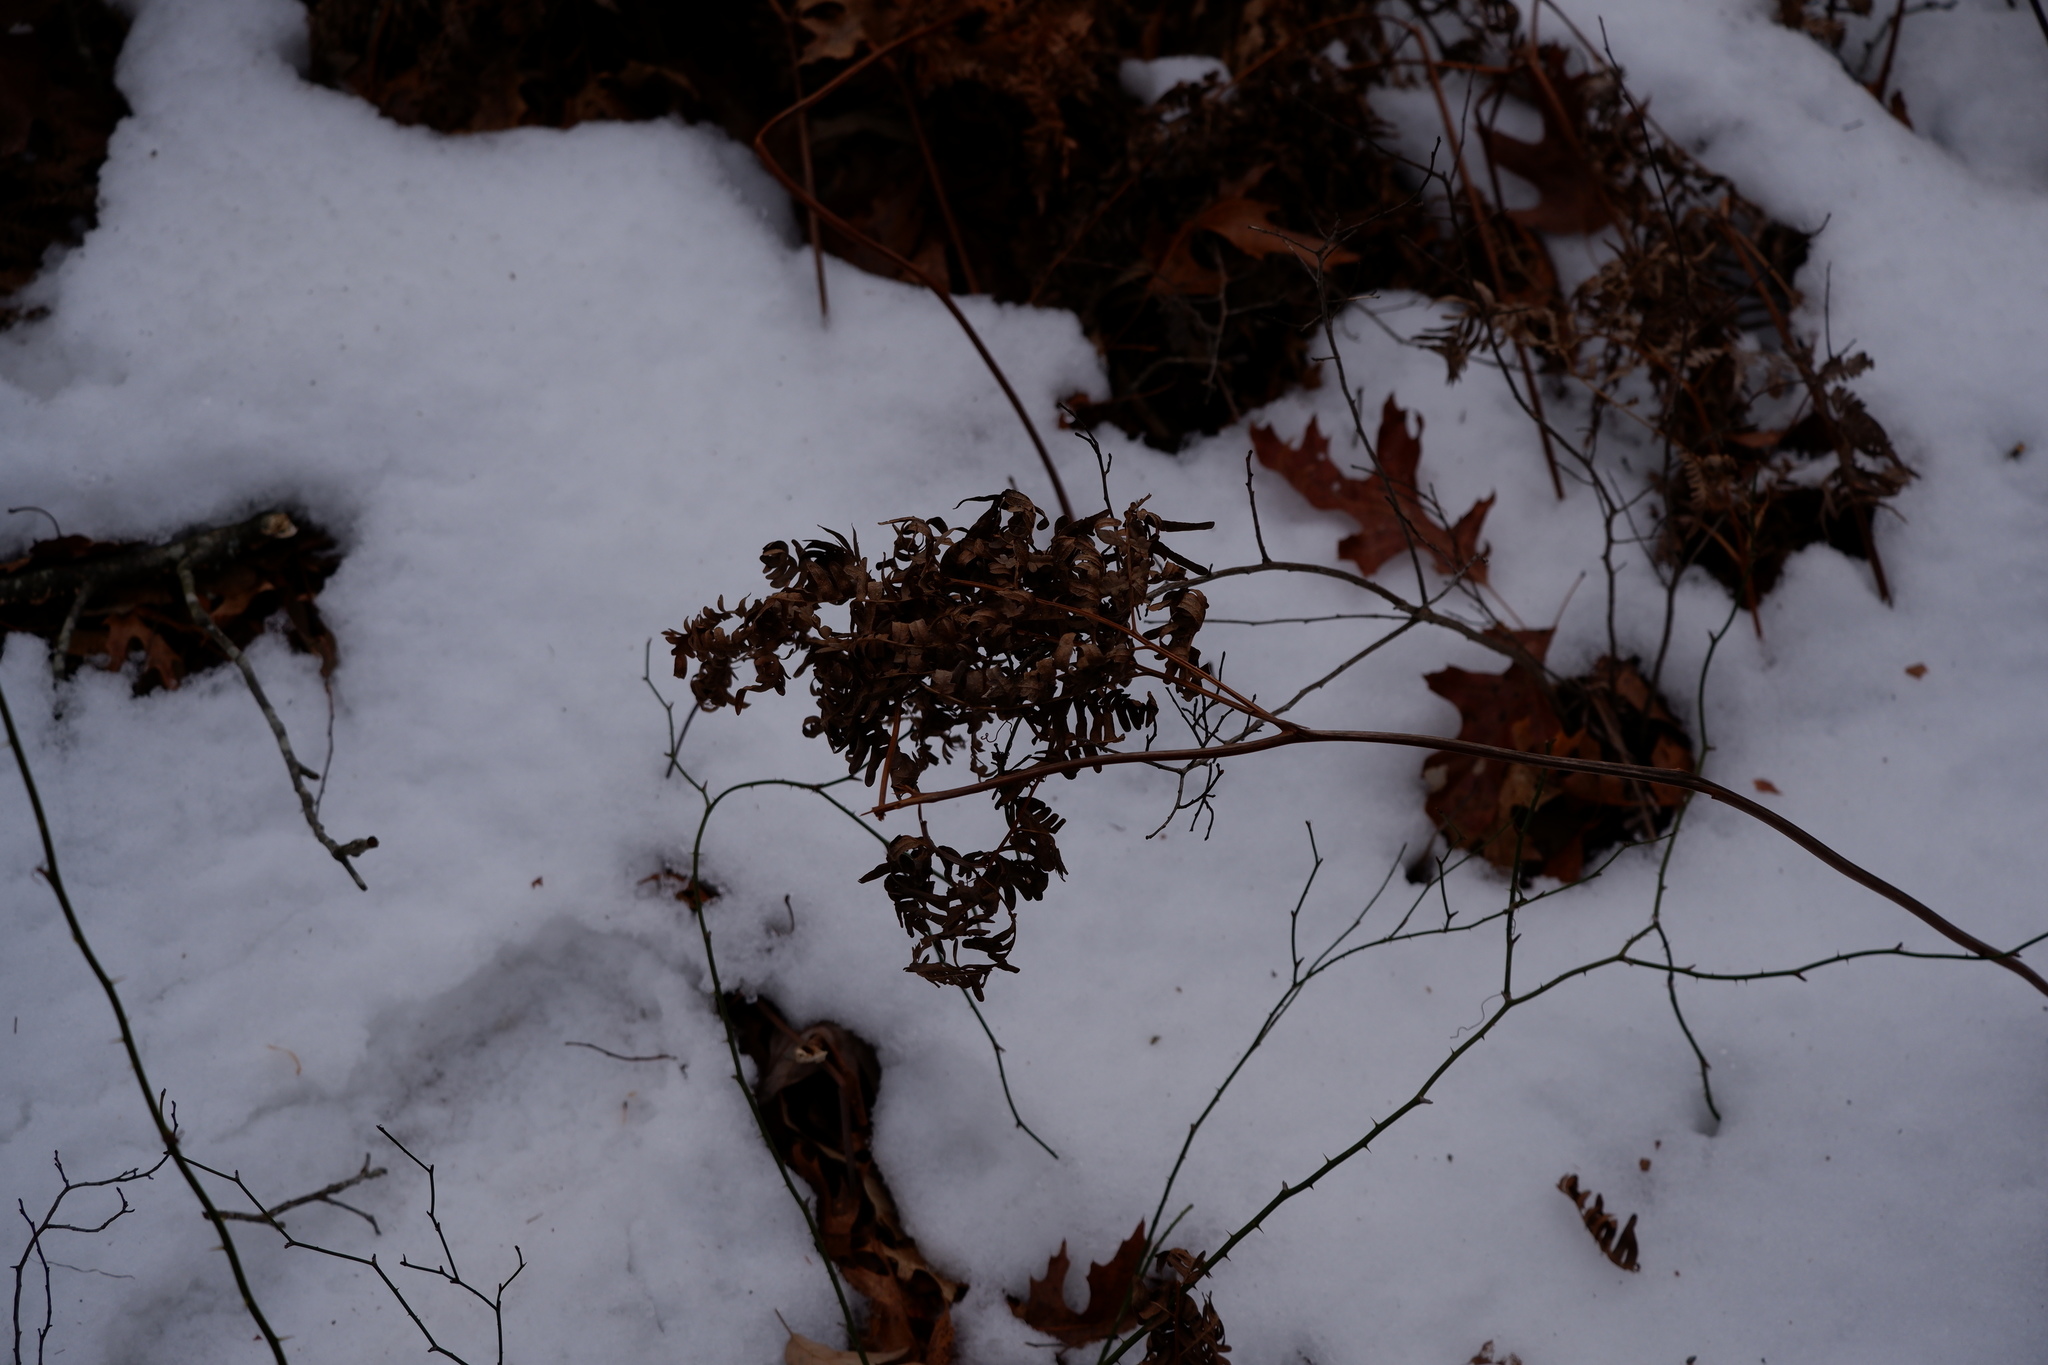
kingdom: Plantae
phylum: Tracheophyta
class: Polypodiopsida
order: Polypodiales
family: Dennstaedtiaceae
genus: Pteridium
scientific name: Pteridium aquilinum
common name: Bracken
